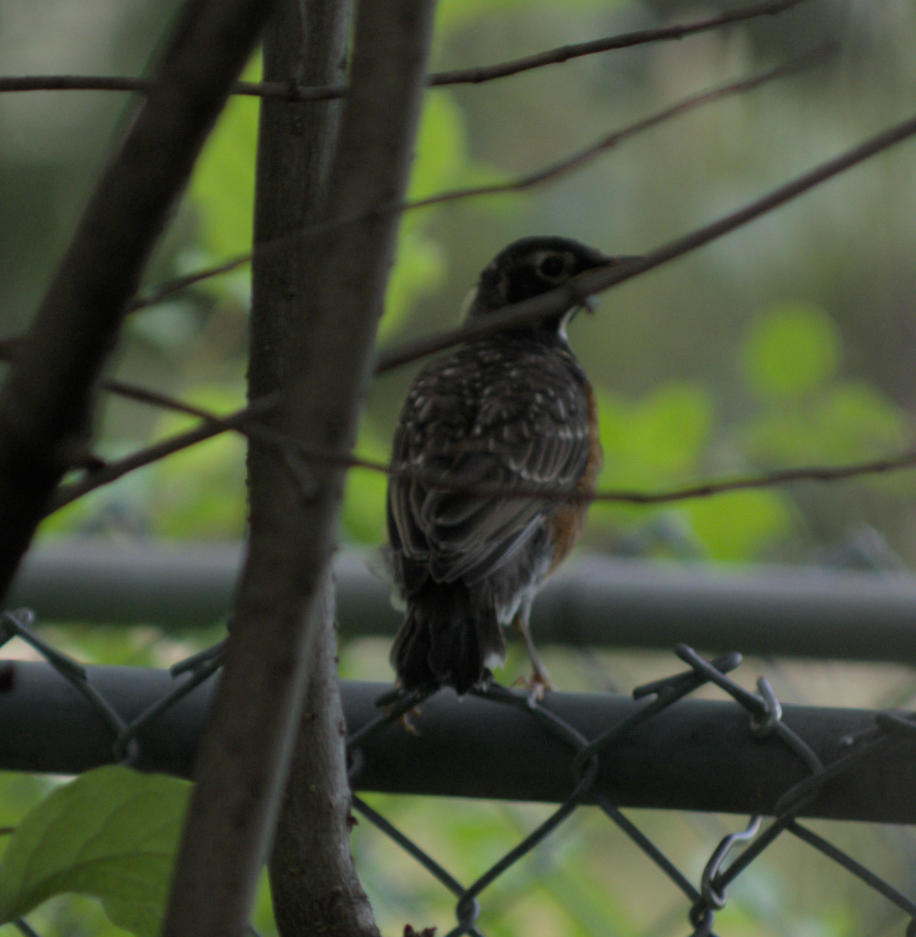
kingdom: Animalia
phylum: Chordata
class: Aves
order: Passeriformes
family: Turdidae
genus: Turdus
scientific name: Turdus migratorius
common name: American robin
